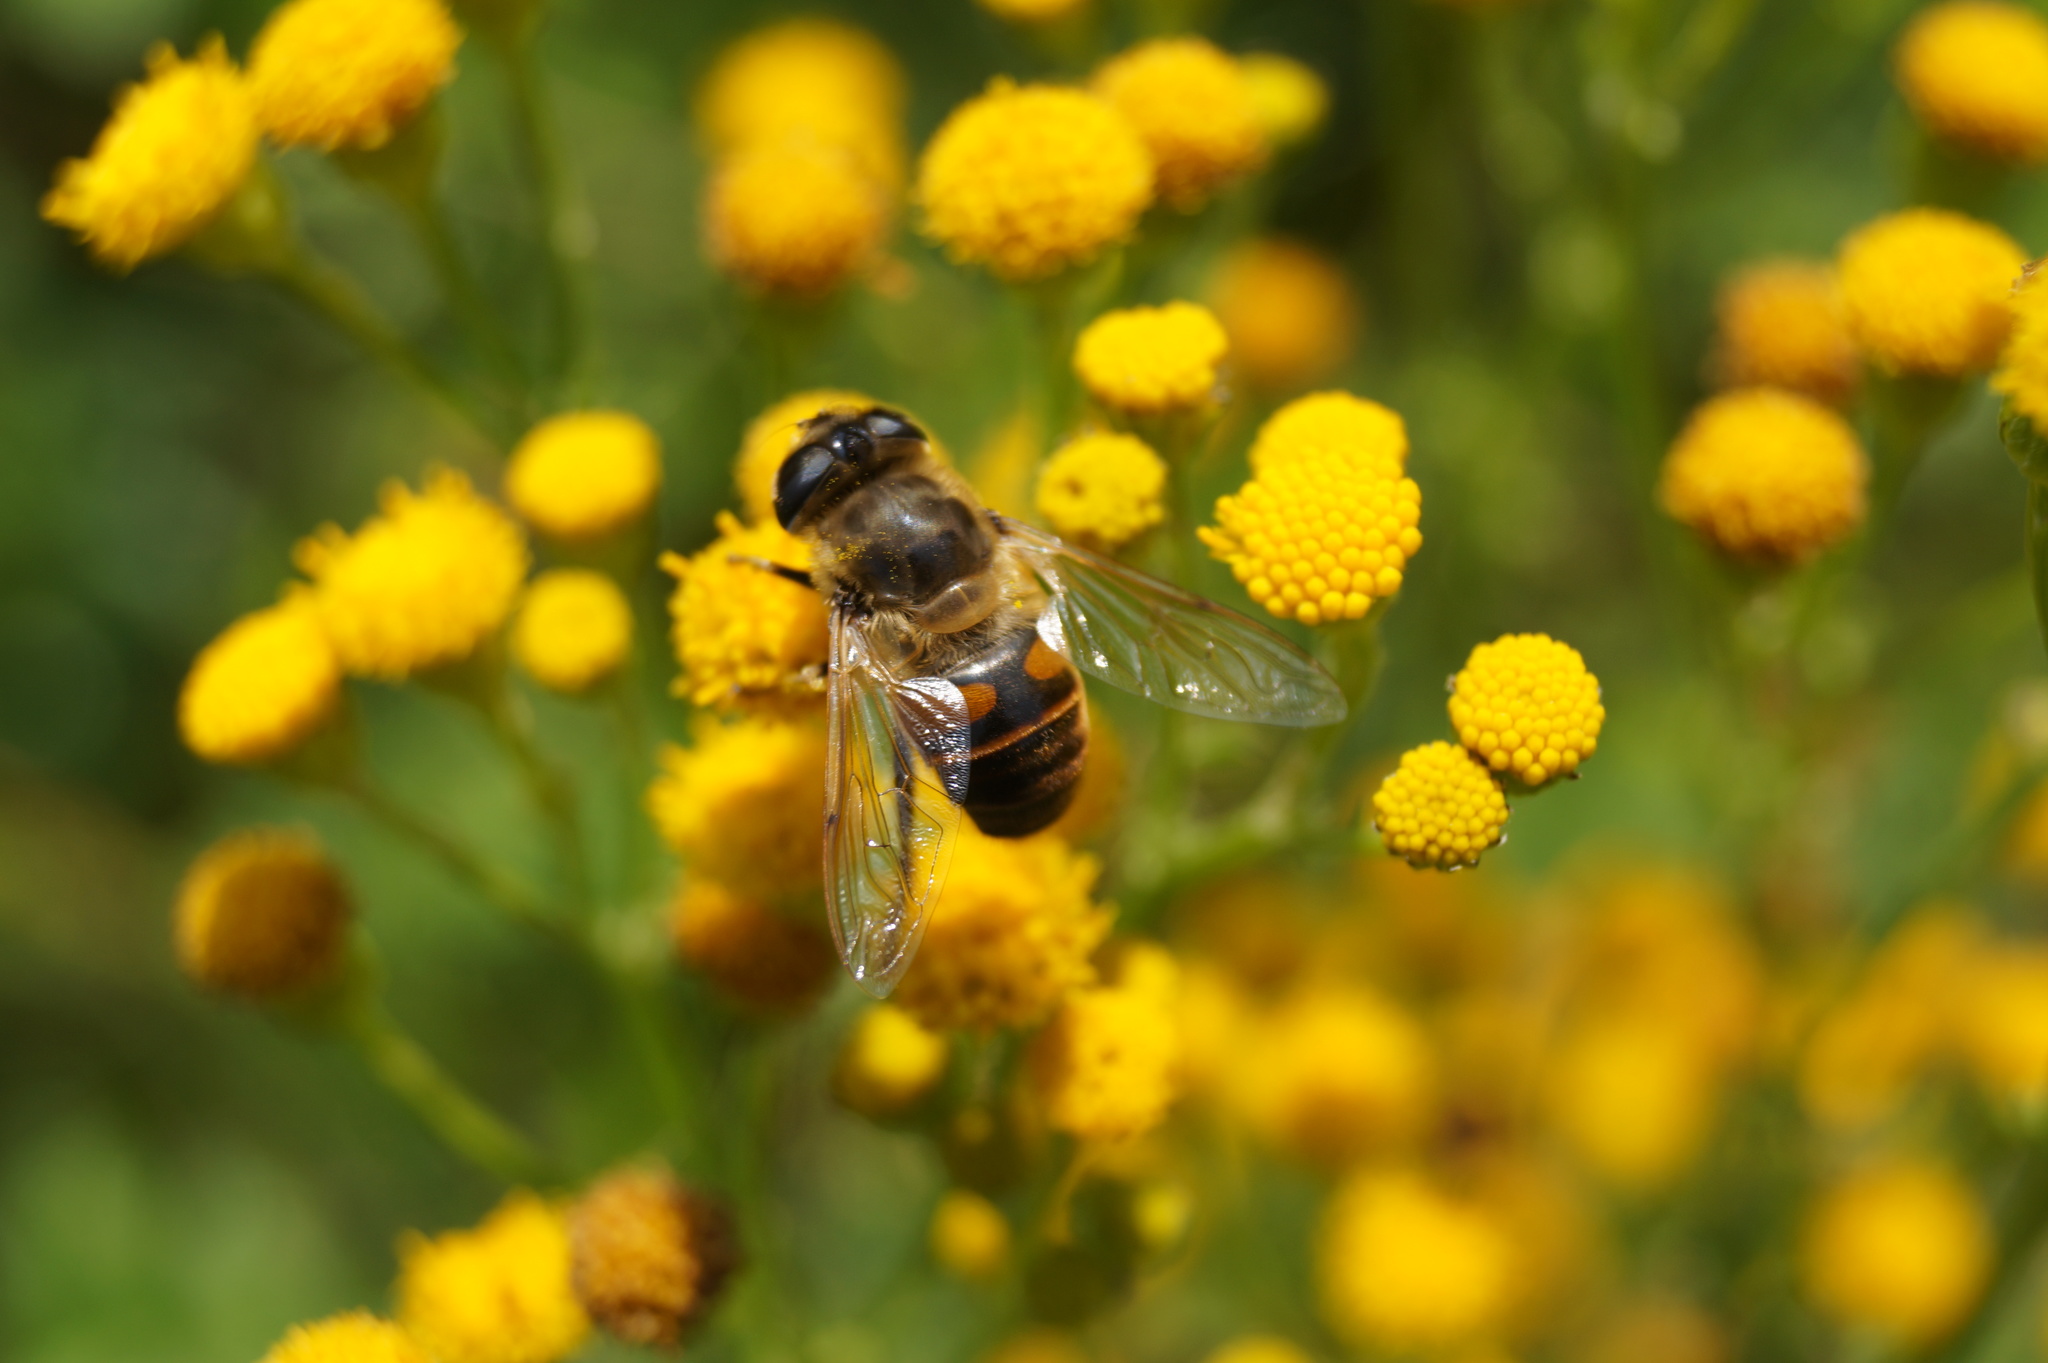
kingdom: Animalia
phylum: Arthropoda
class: Insecta
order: Diptera
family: Syrphidae
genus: Eristalis
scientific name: Eristalis tenax
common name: Drone fly
